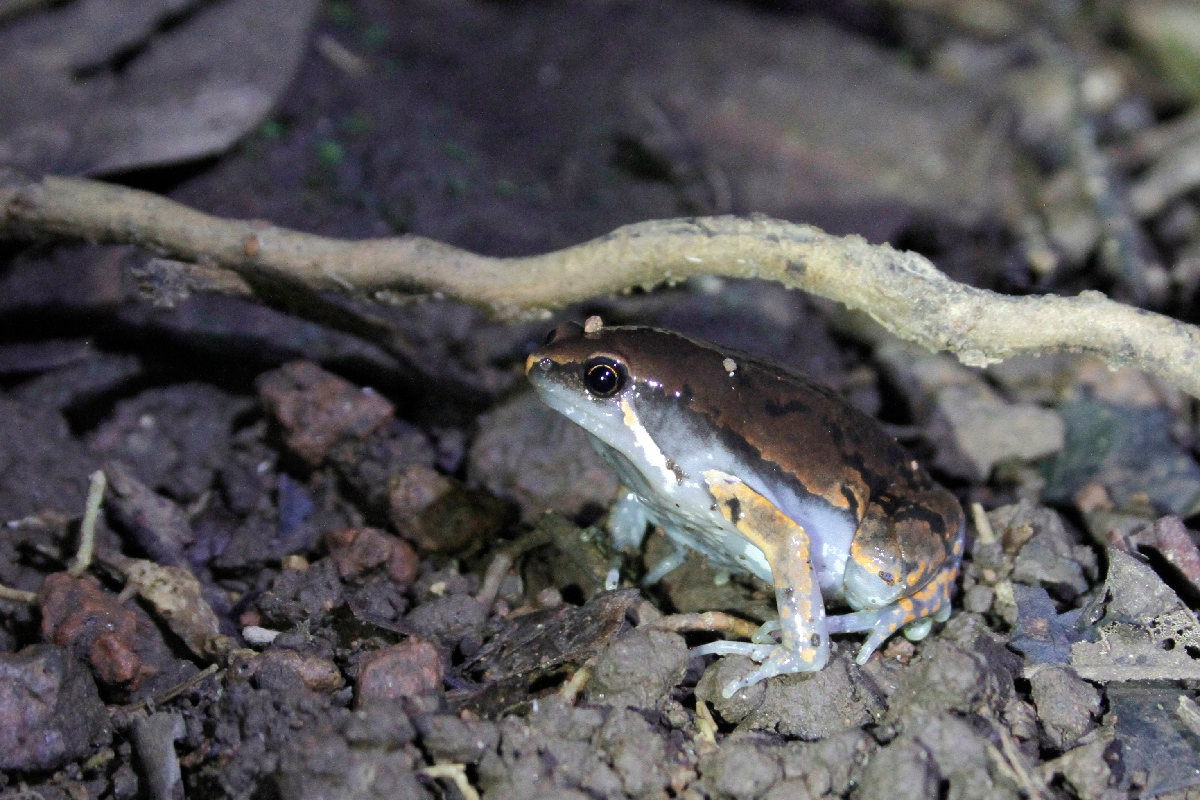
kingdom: Animalia
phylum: Chordata
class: Amphibia
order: Anura
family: Microhylidae
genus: Hypopachus
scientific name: Hypopachus variolosus
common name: Sheep frog
